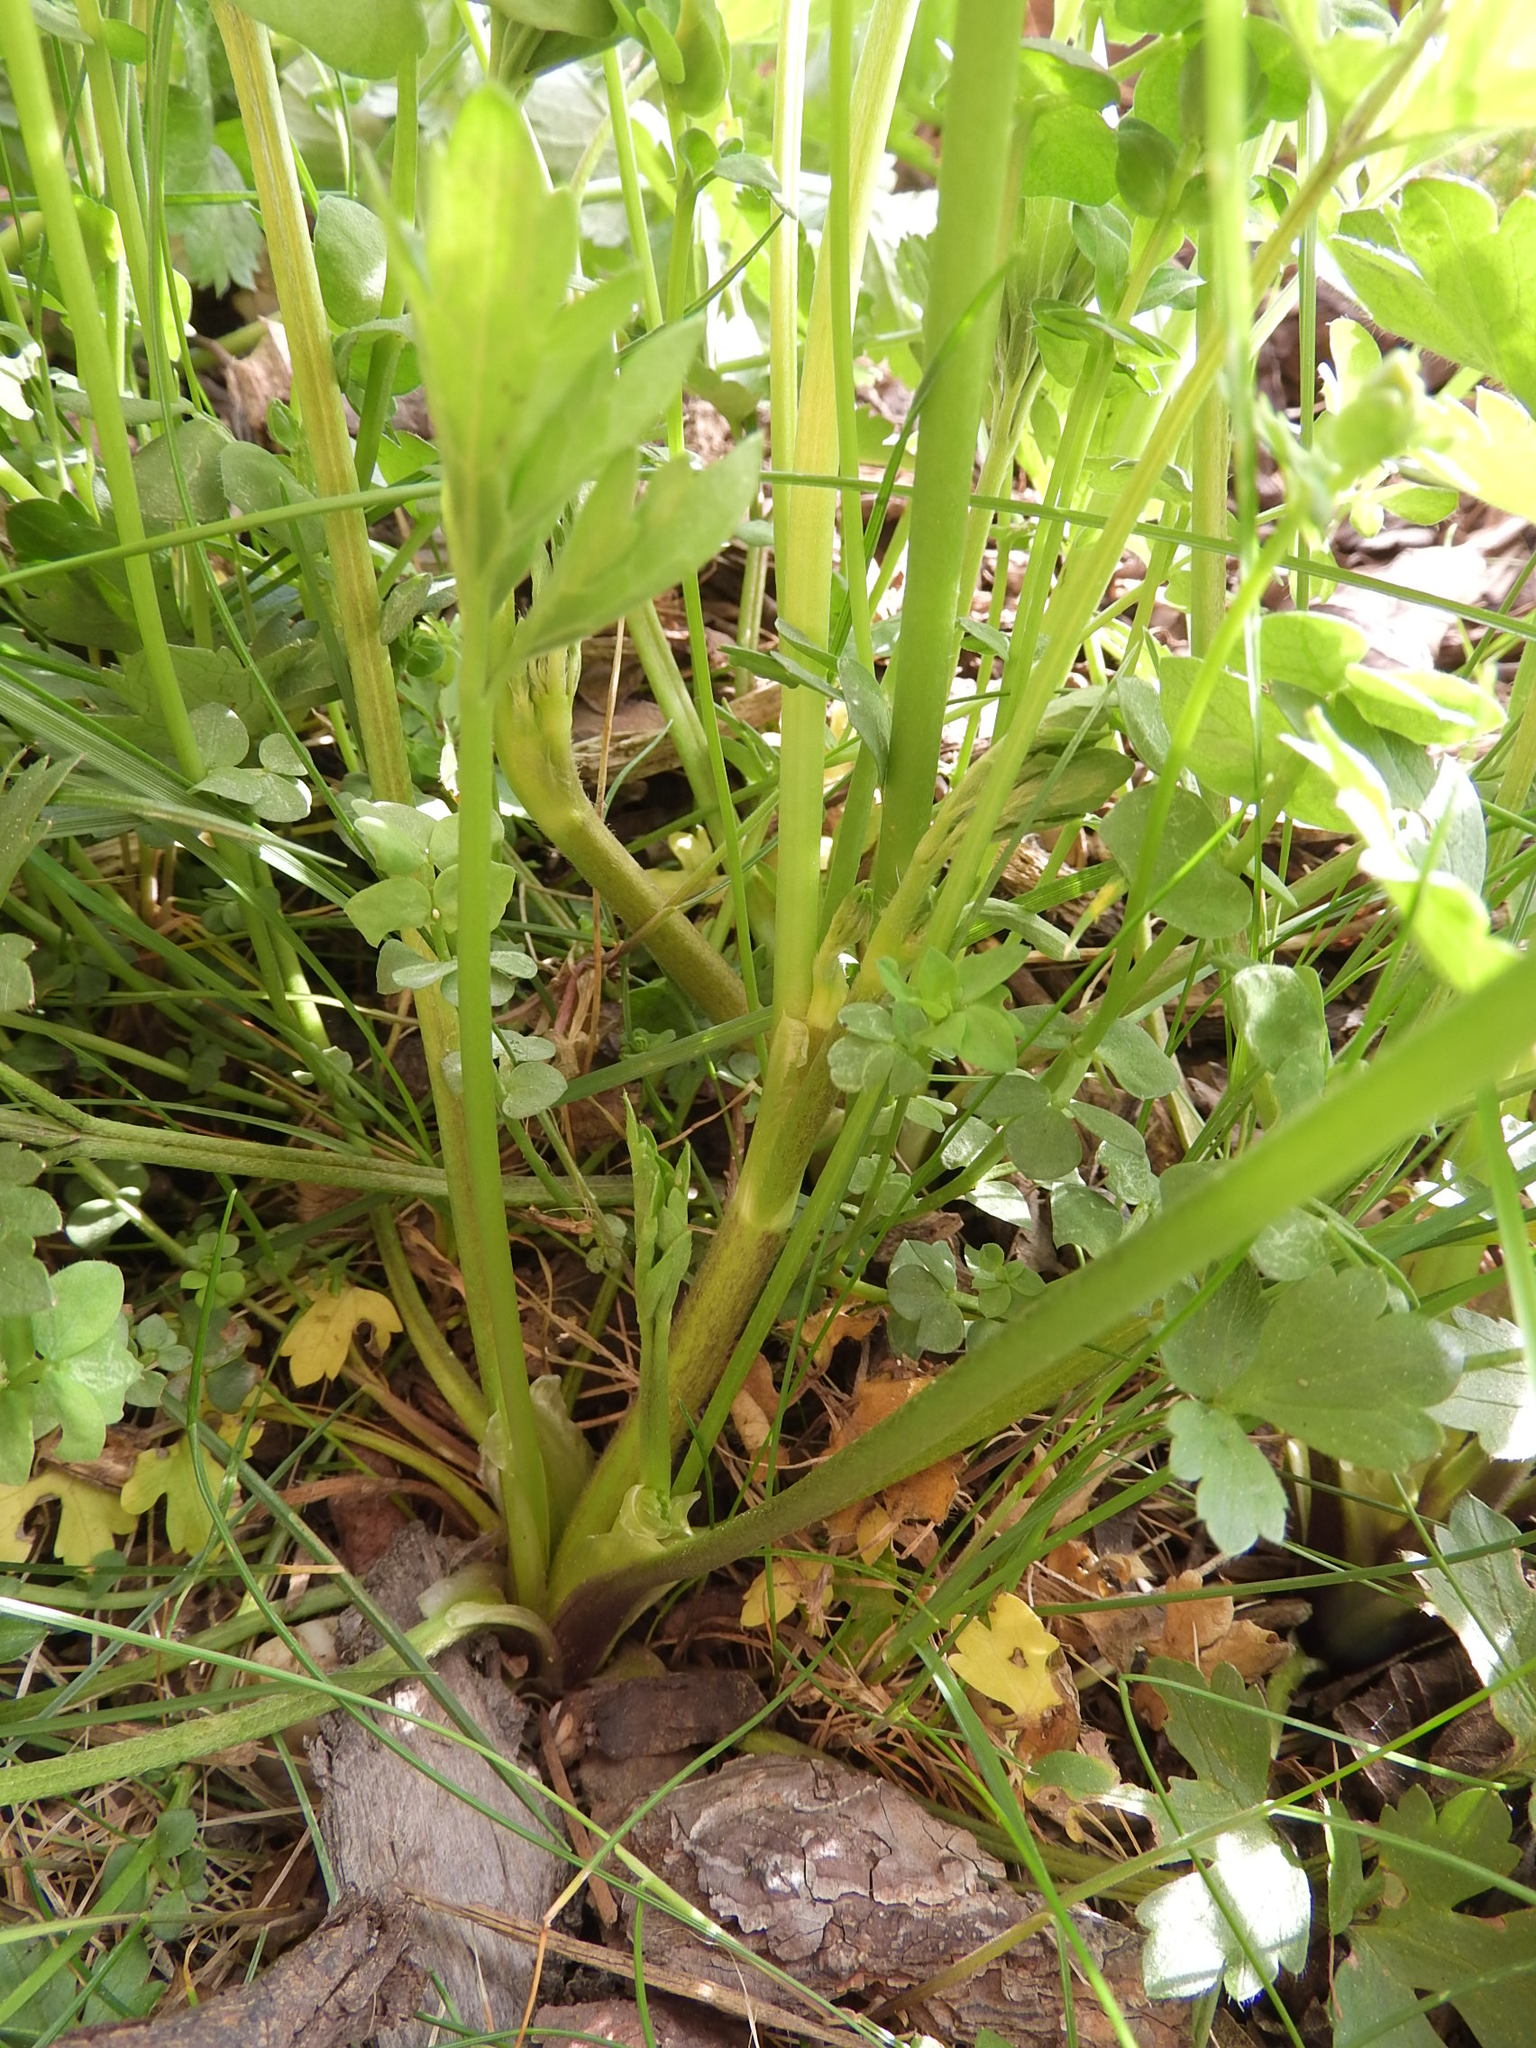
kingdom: Plantae
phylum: Tracheophyta
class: Magnoliopsida
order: Ranunculales
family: Ranunculaceae
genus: Ranunculus
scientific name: Ranunculus repens
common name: Creeping buttercup
